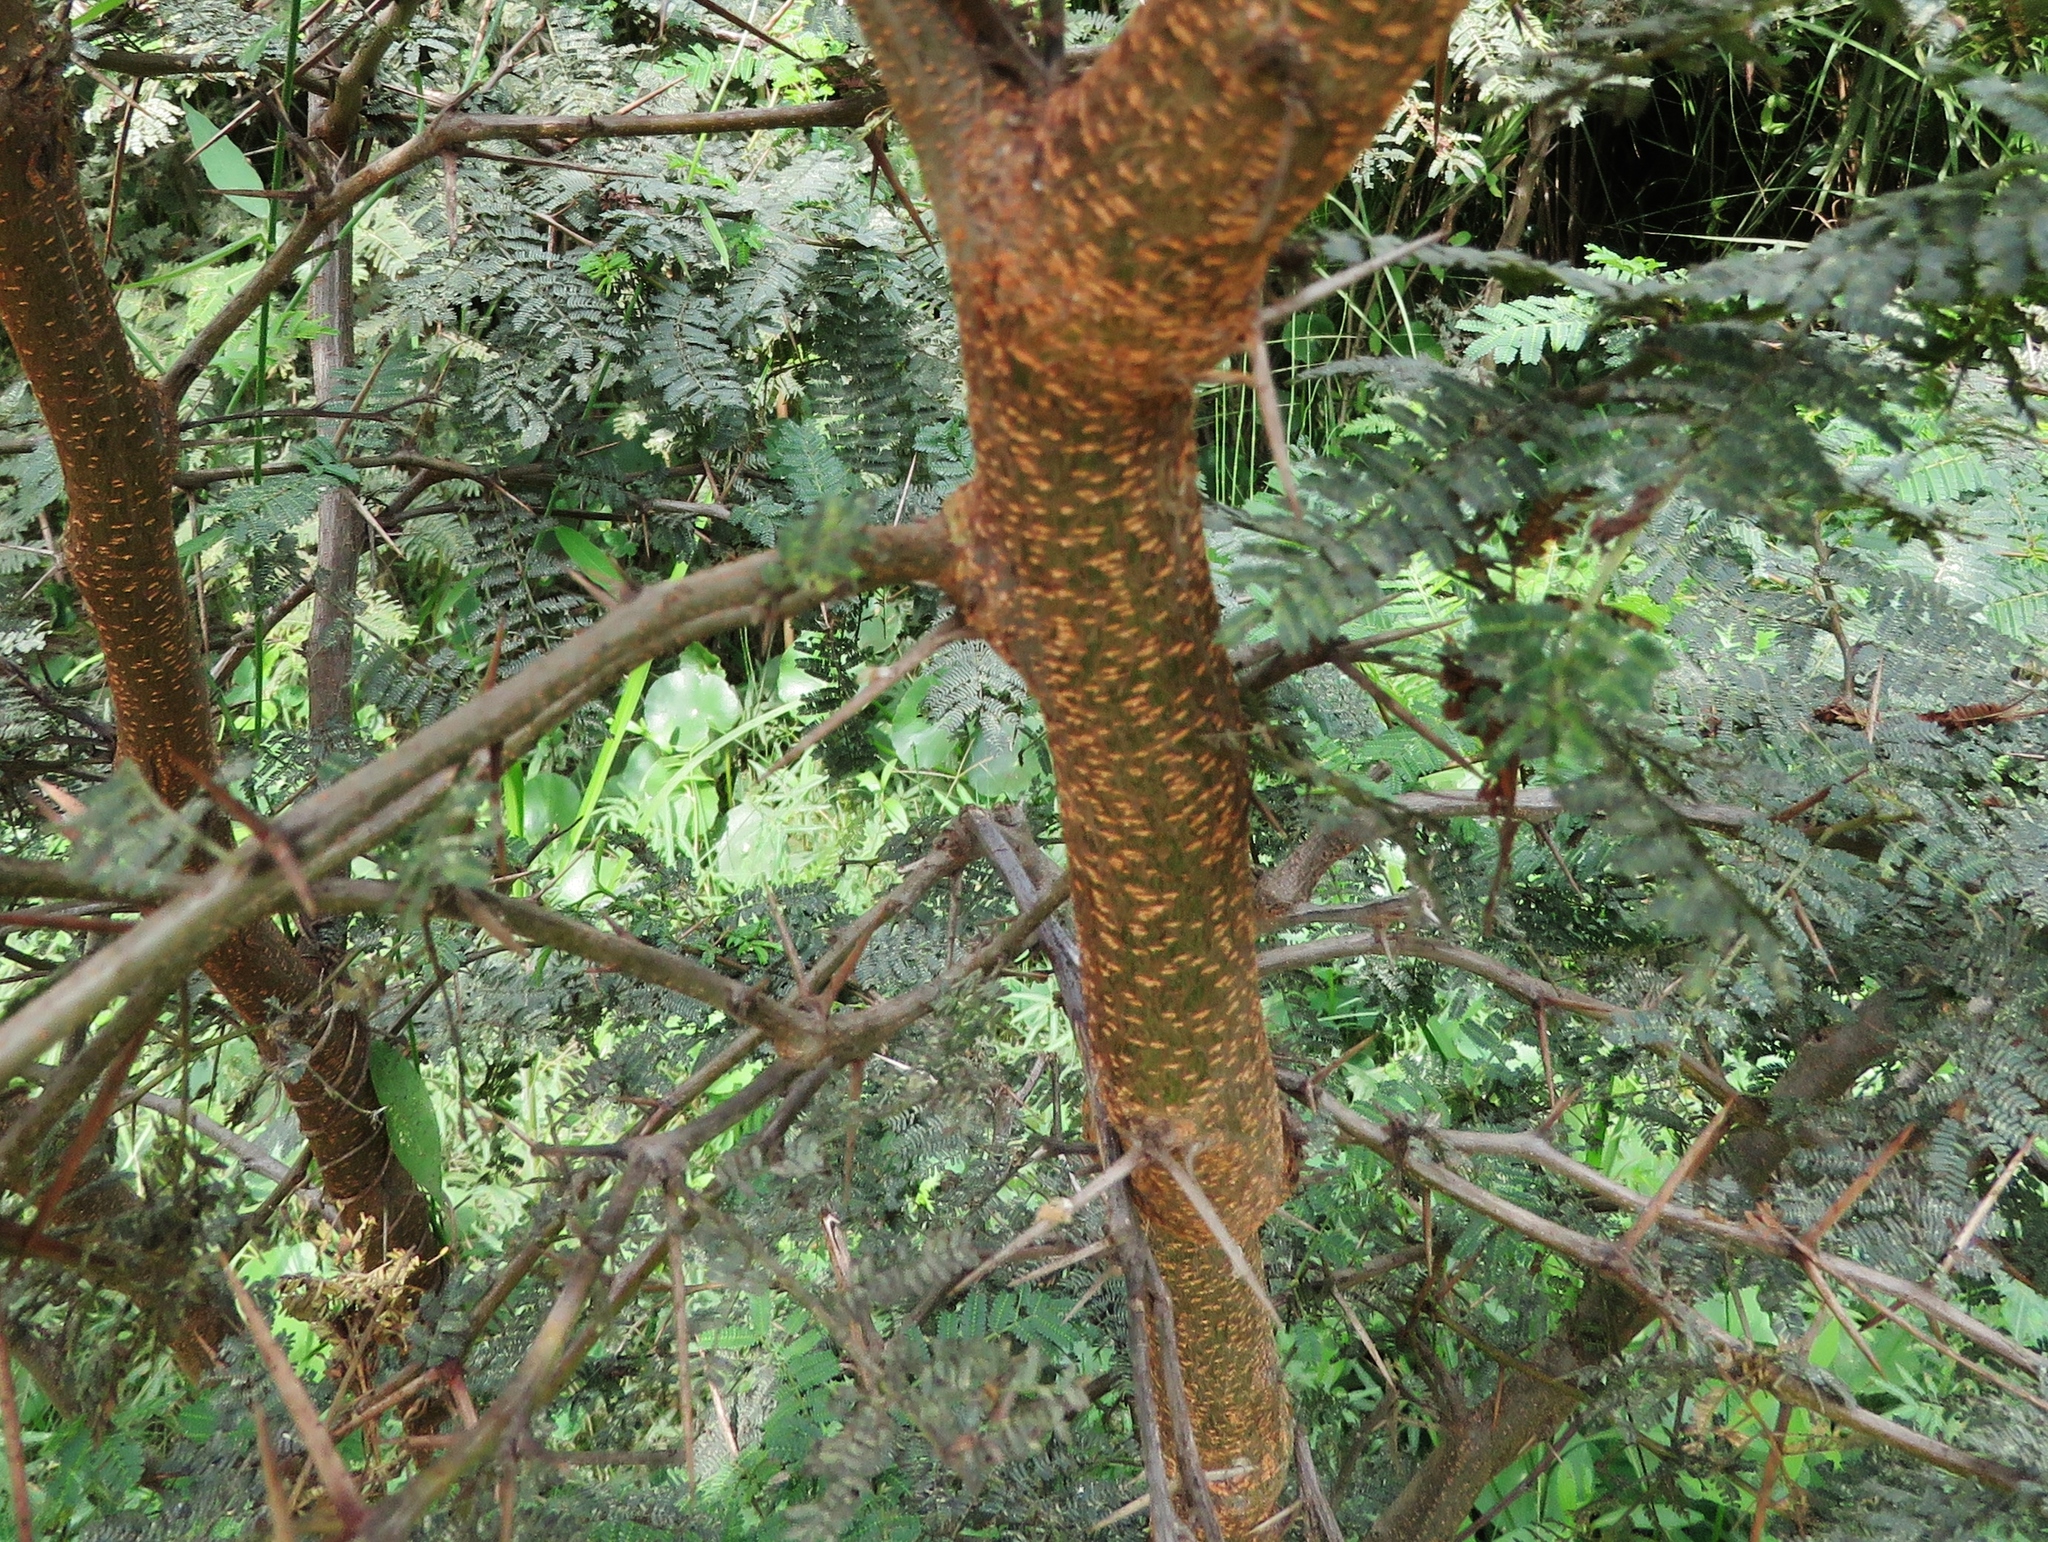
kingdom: Plantae
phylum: Tracheophyta
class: Magnoliopsida
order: Fabales
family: Fabaceae
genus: Vachellia
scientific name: Vachellia macracantha
